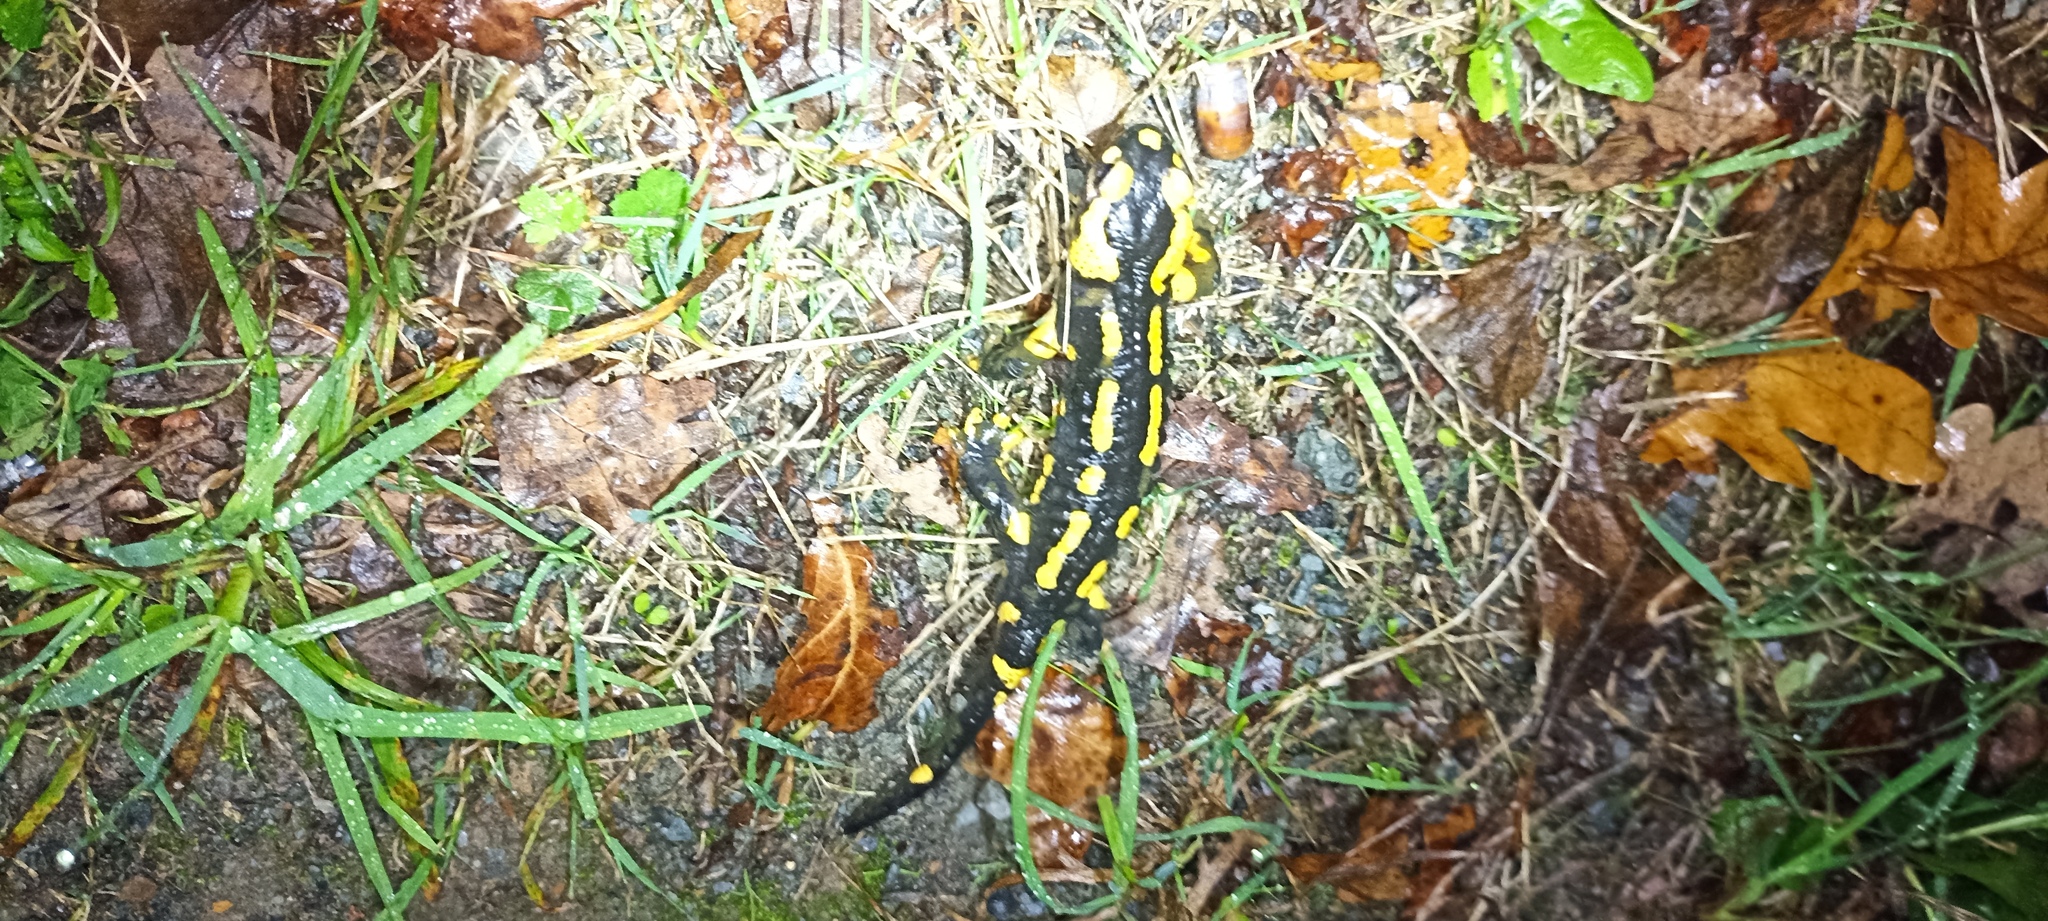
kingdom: Animalia
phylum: Chordata
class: Amphibia
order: Caudata
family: Salamandridae
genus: Salamandra
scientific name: Salamandra salamandra
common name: Fire salamander
